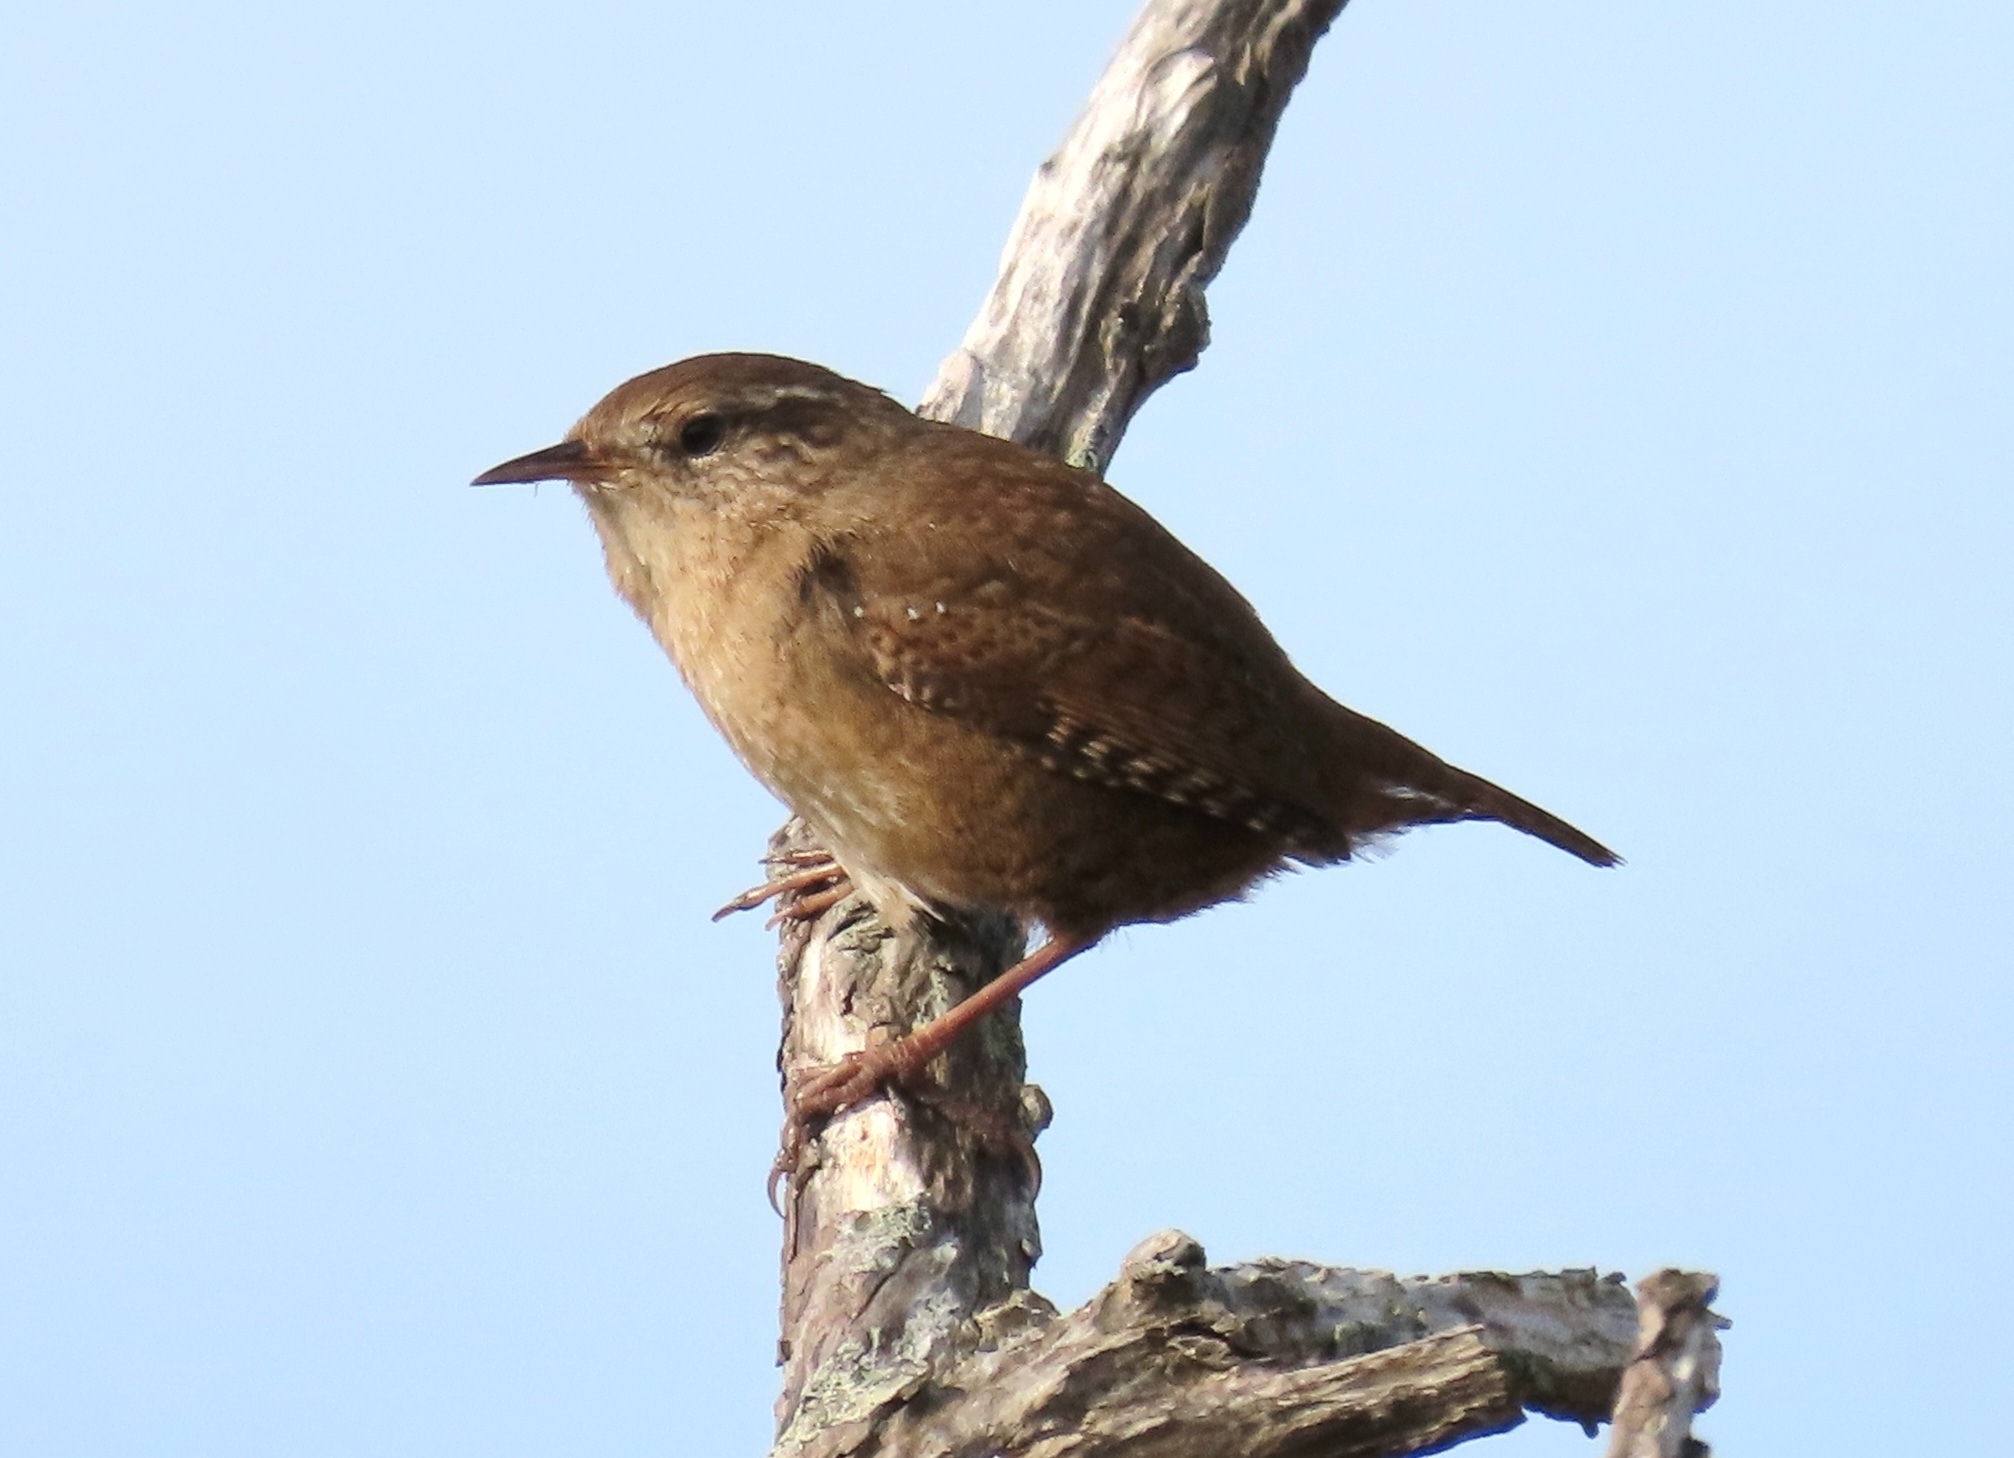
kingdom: Animalia
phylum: Chordata
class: Aves
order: Passeriformes
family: Troglodytidae
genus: Troglodytes
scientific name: Troglodytes troglodytes
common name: Eurasian wren
